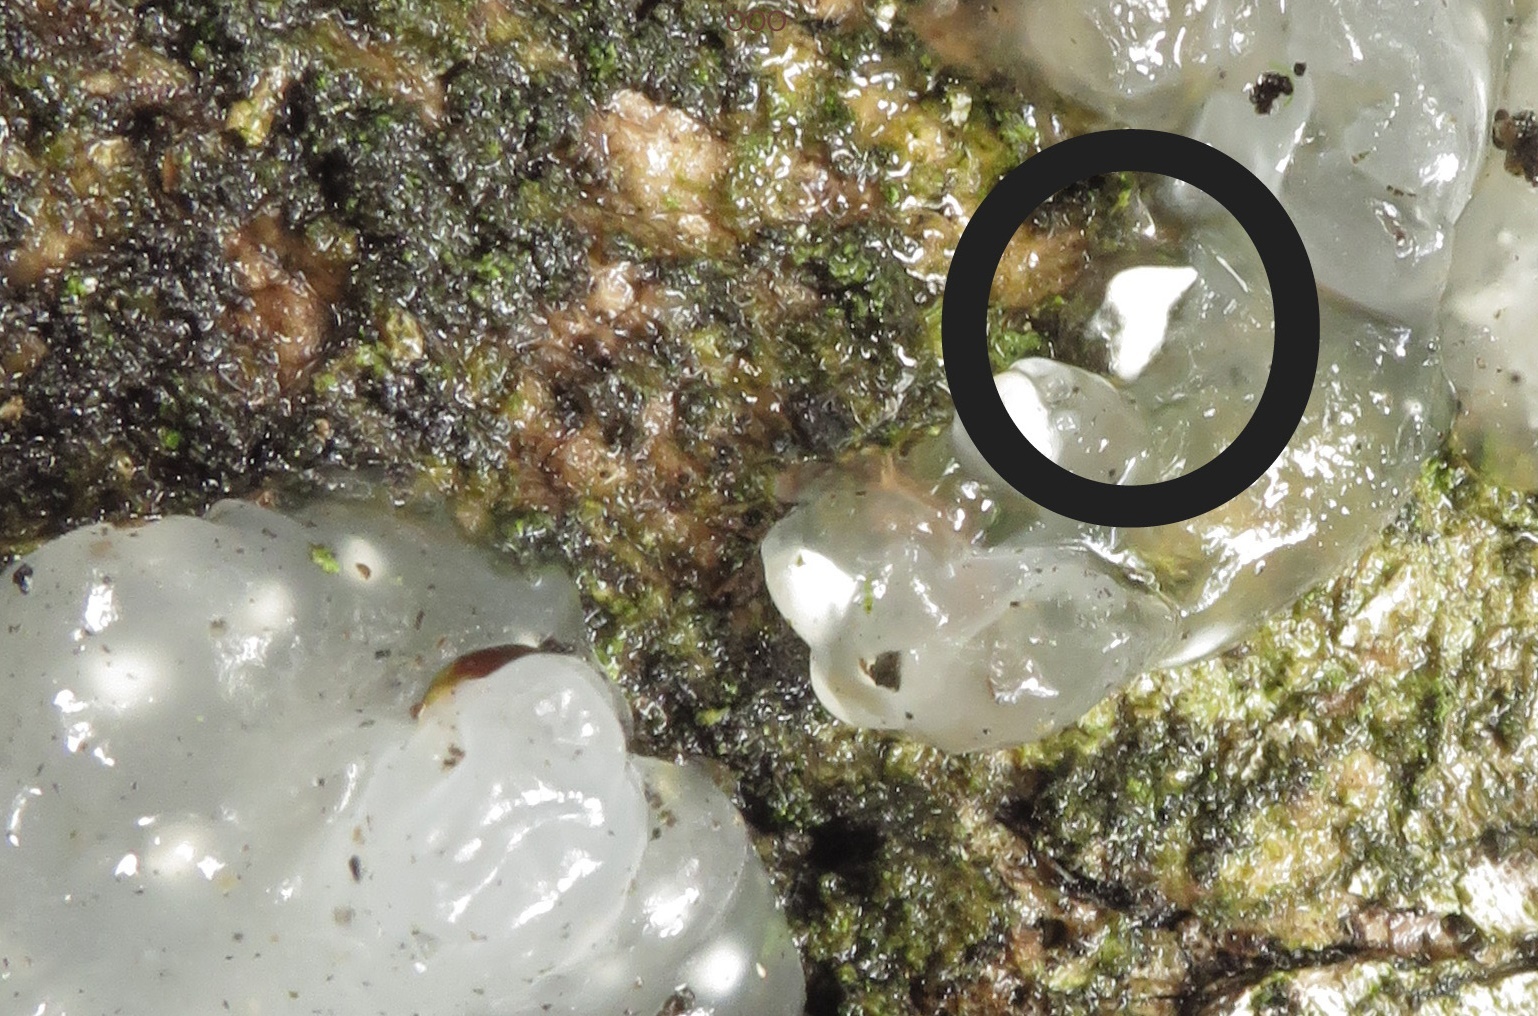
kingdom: Fungi
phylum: Basidiomycota
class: Agaricomycetes
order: Auriculariales
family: Hyaloriaceae
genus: Myxarium
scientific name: Myxarium nucleatum
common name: Crystal brain fungus
